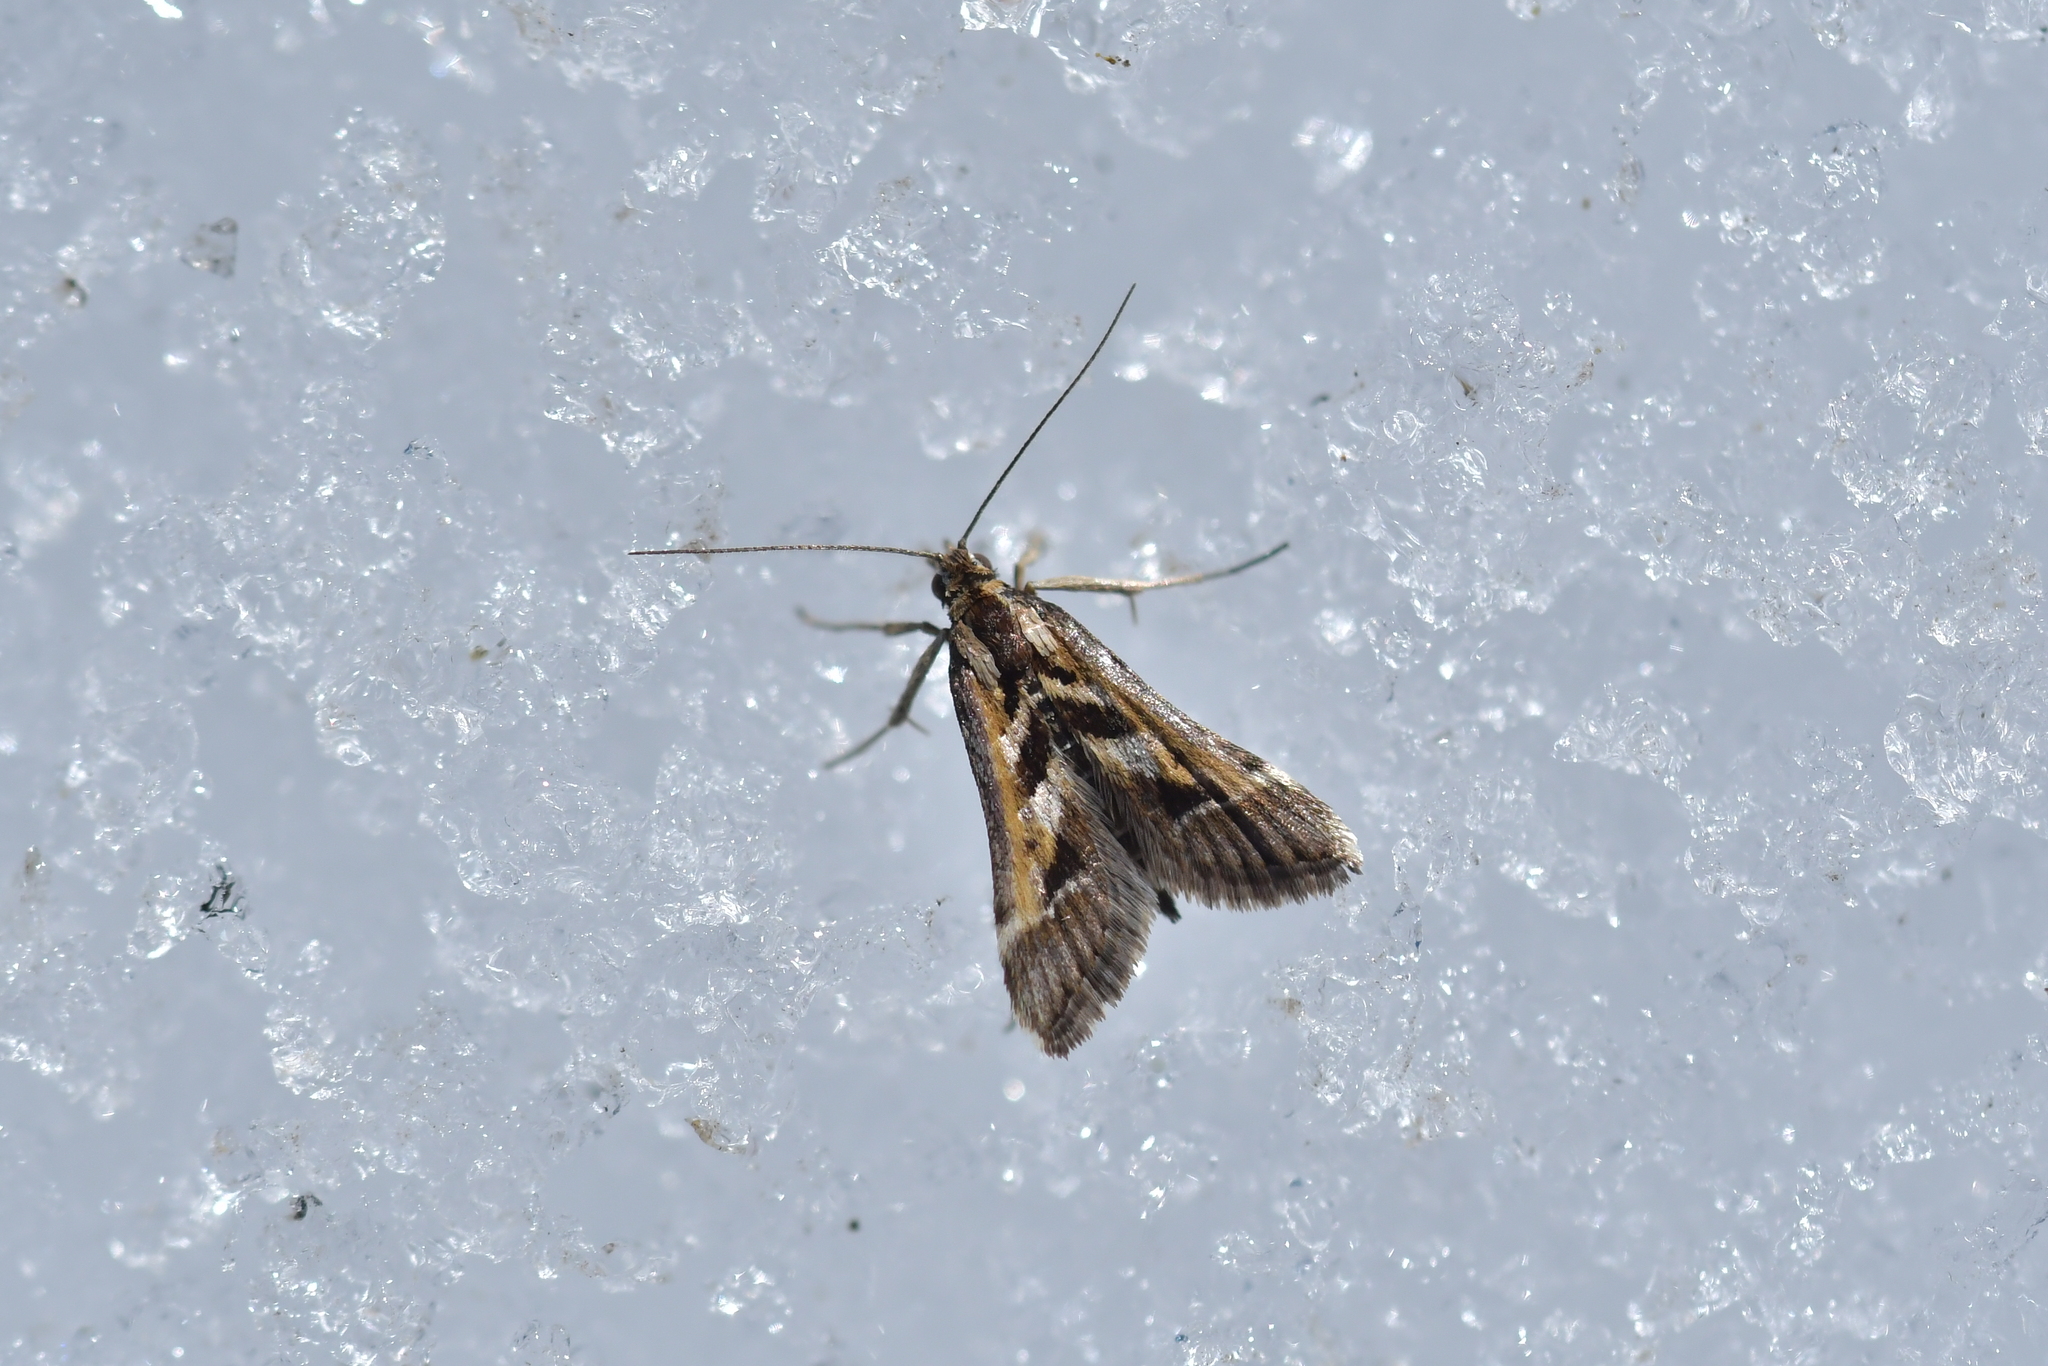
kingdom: Animalia
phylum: Arthropoda
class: Insecta
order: Lepidoptera
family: Crambidae
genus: Diasemia
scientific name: Diasemia grammalis
